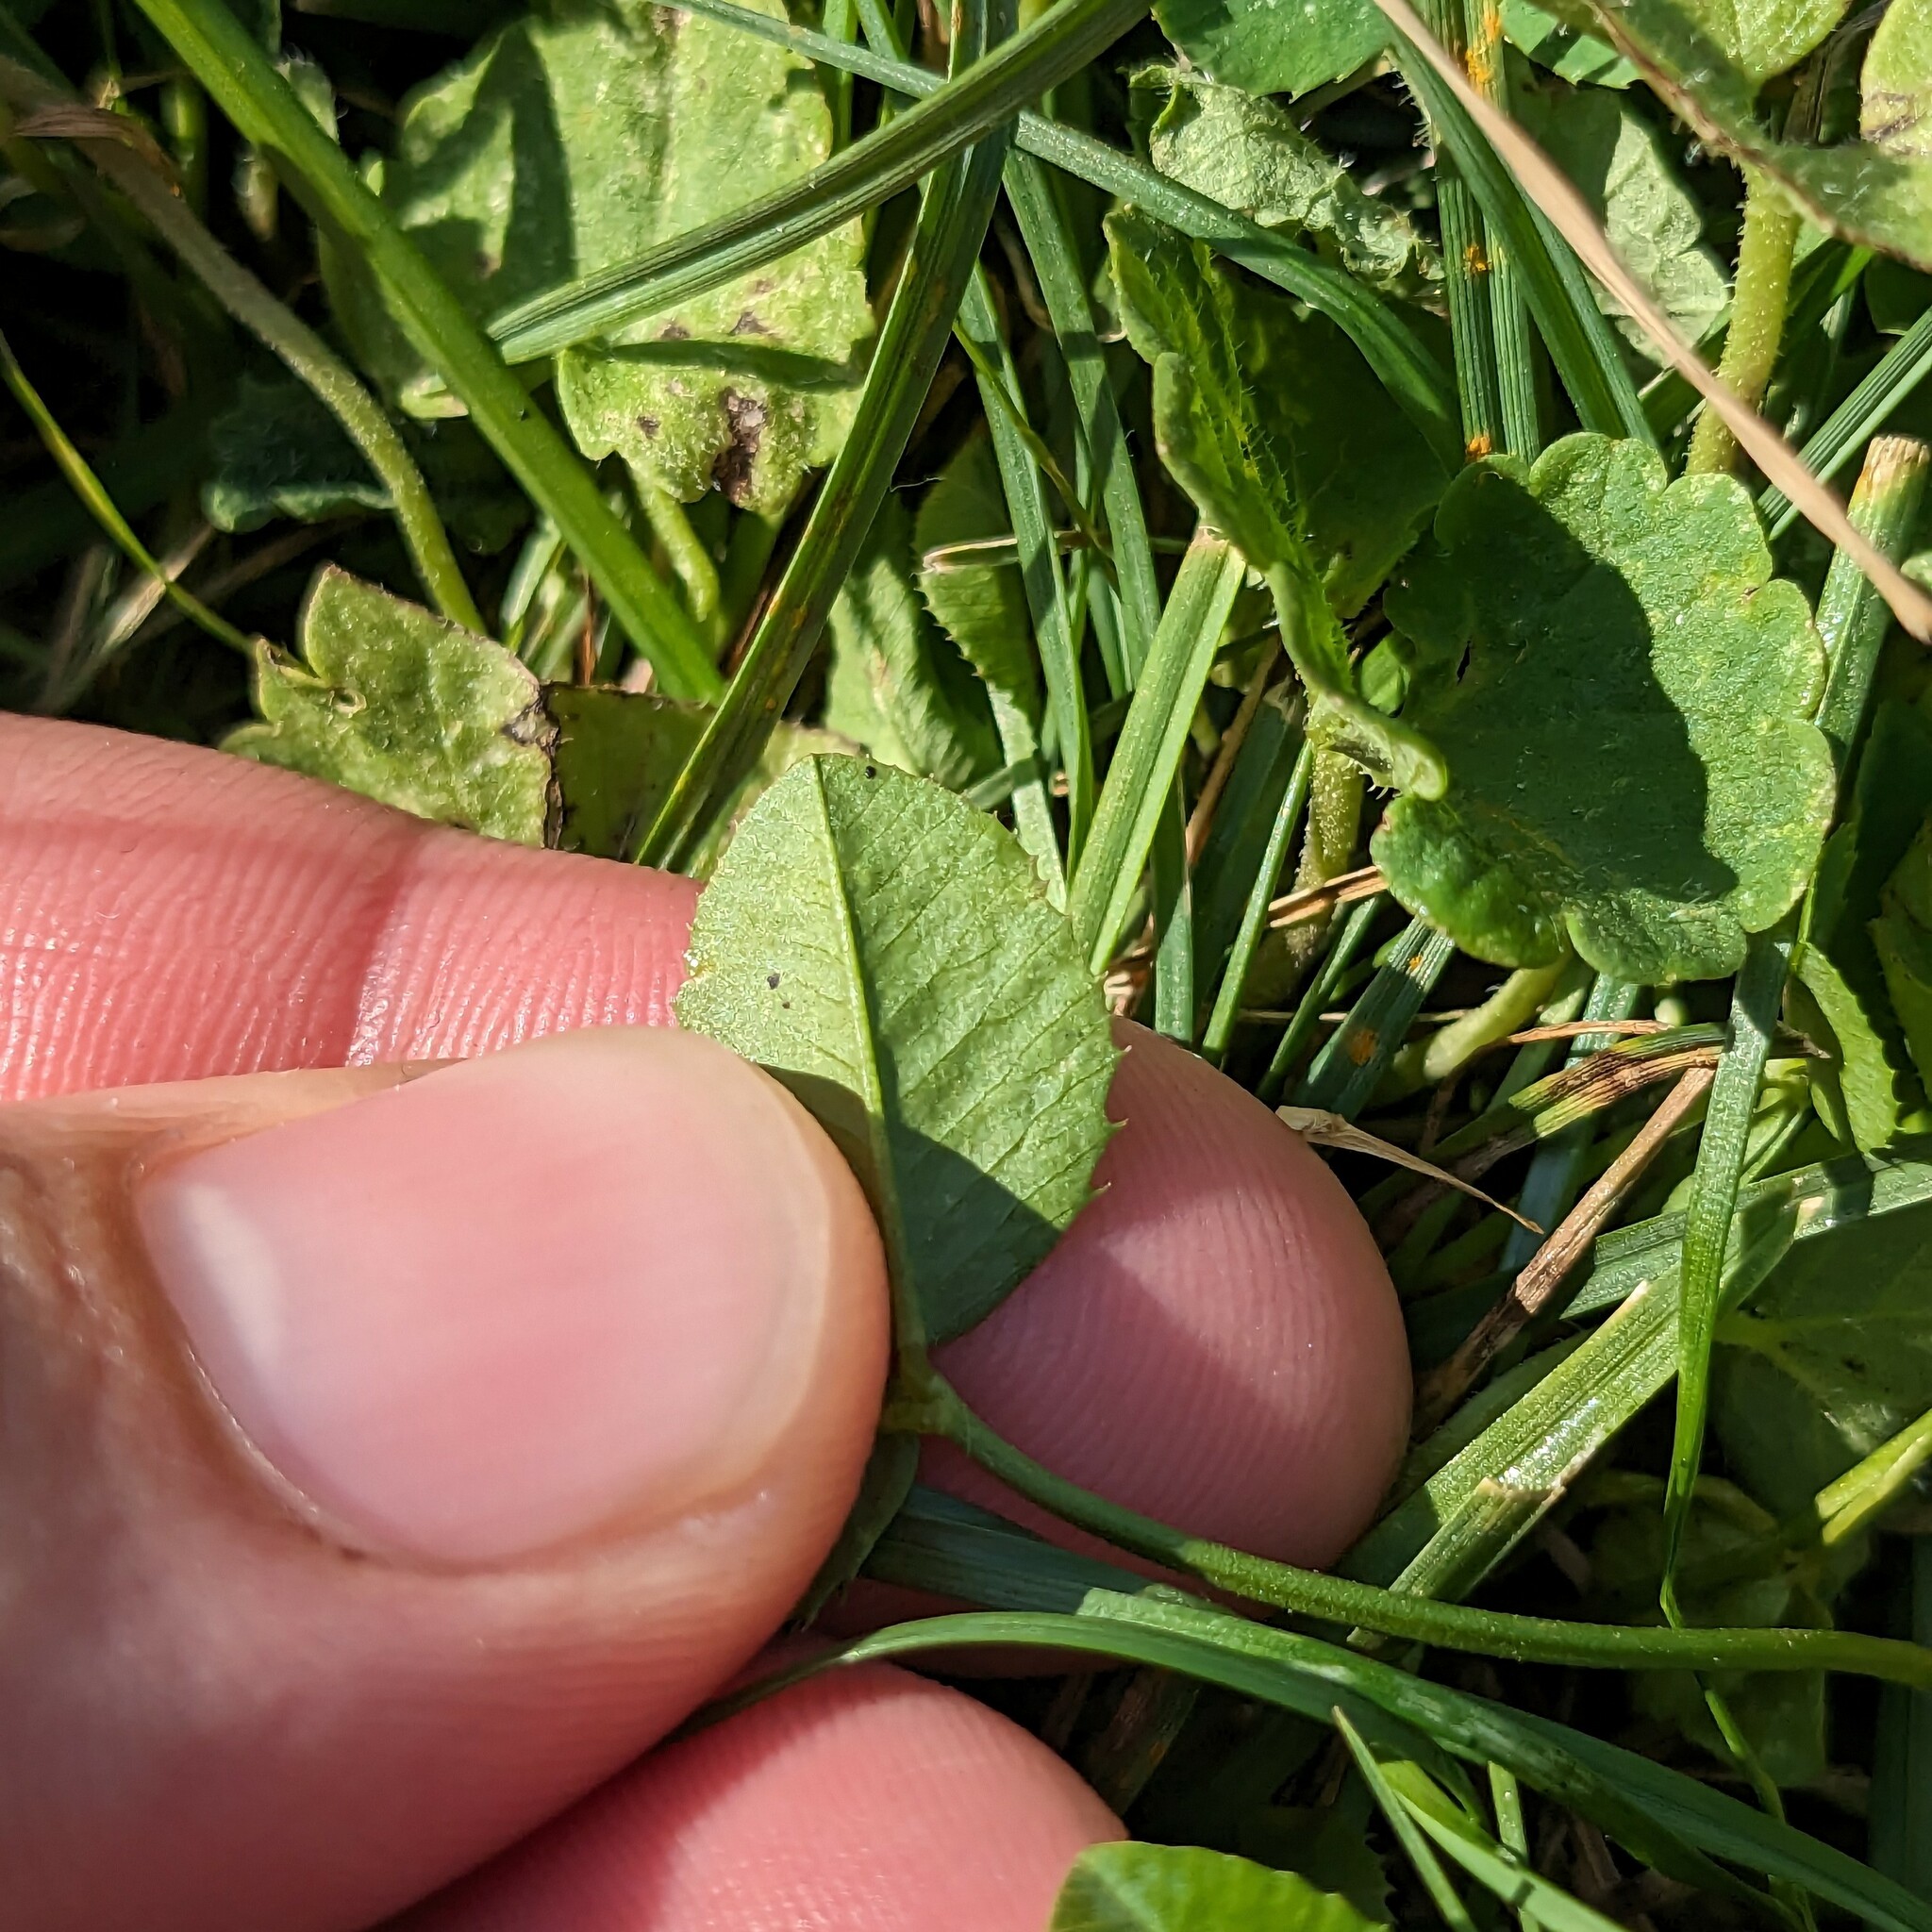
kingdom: Plantae
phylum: Tracheophyta
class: Magnoliopsida
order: Fabales
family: Fabaceae
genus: Trifolium
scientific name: Trifolium repens
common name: White clover
